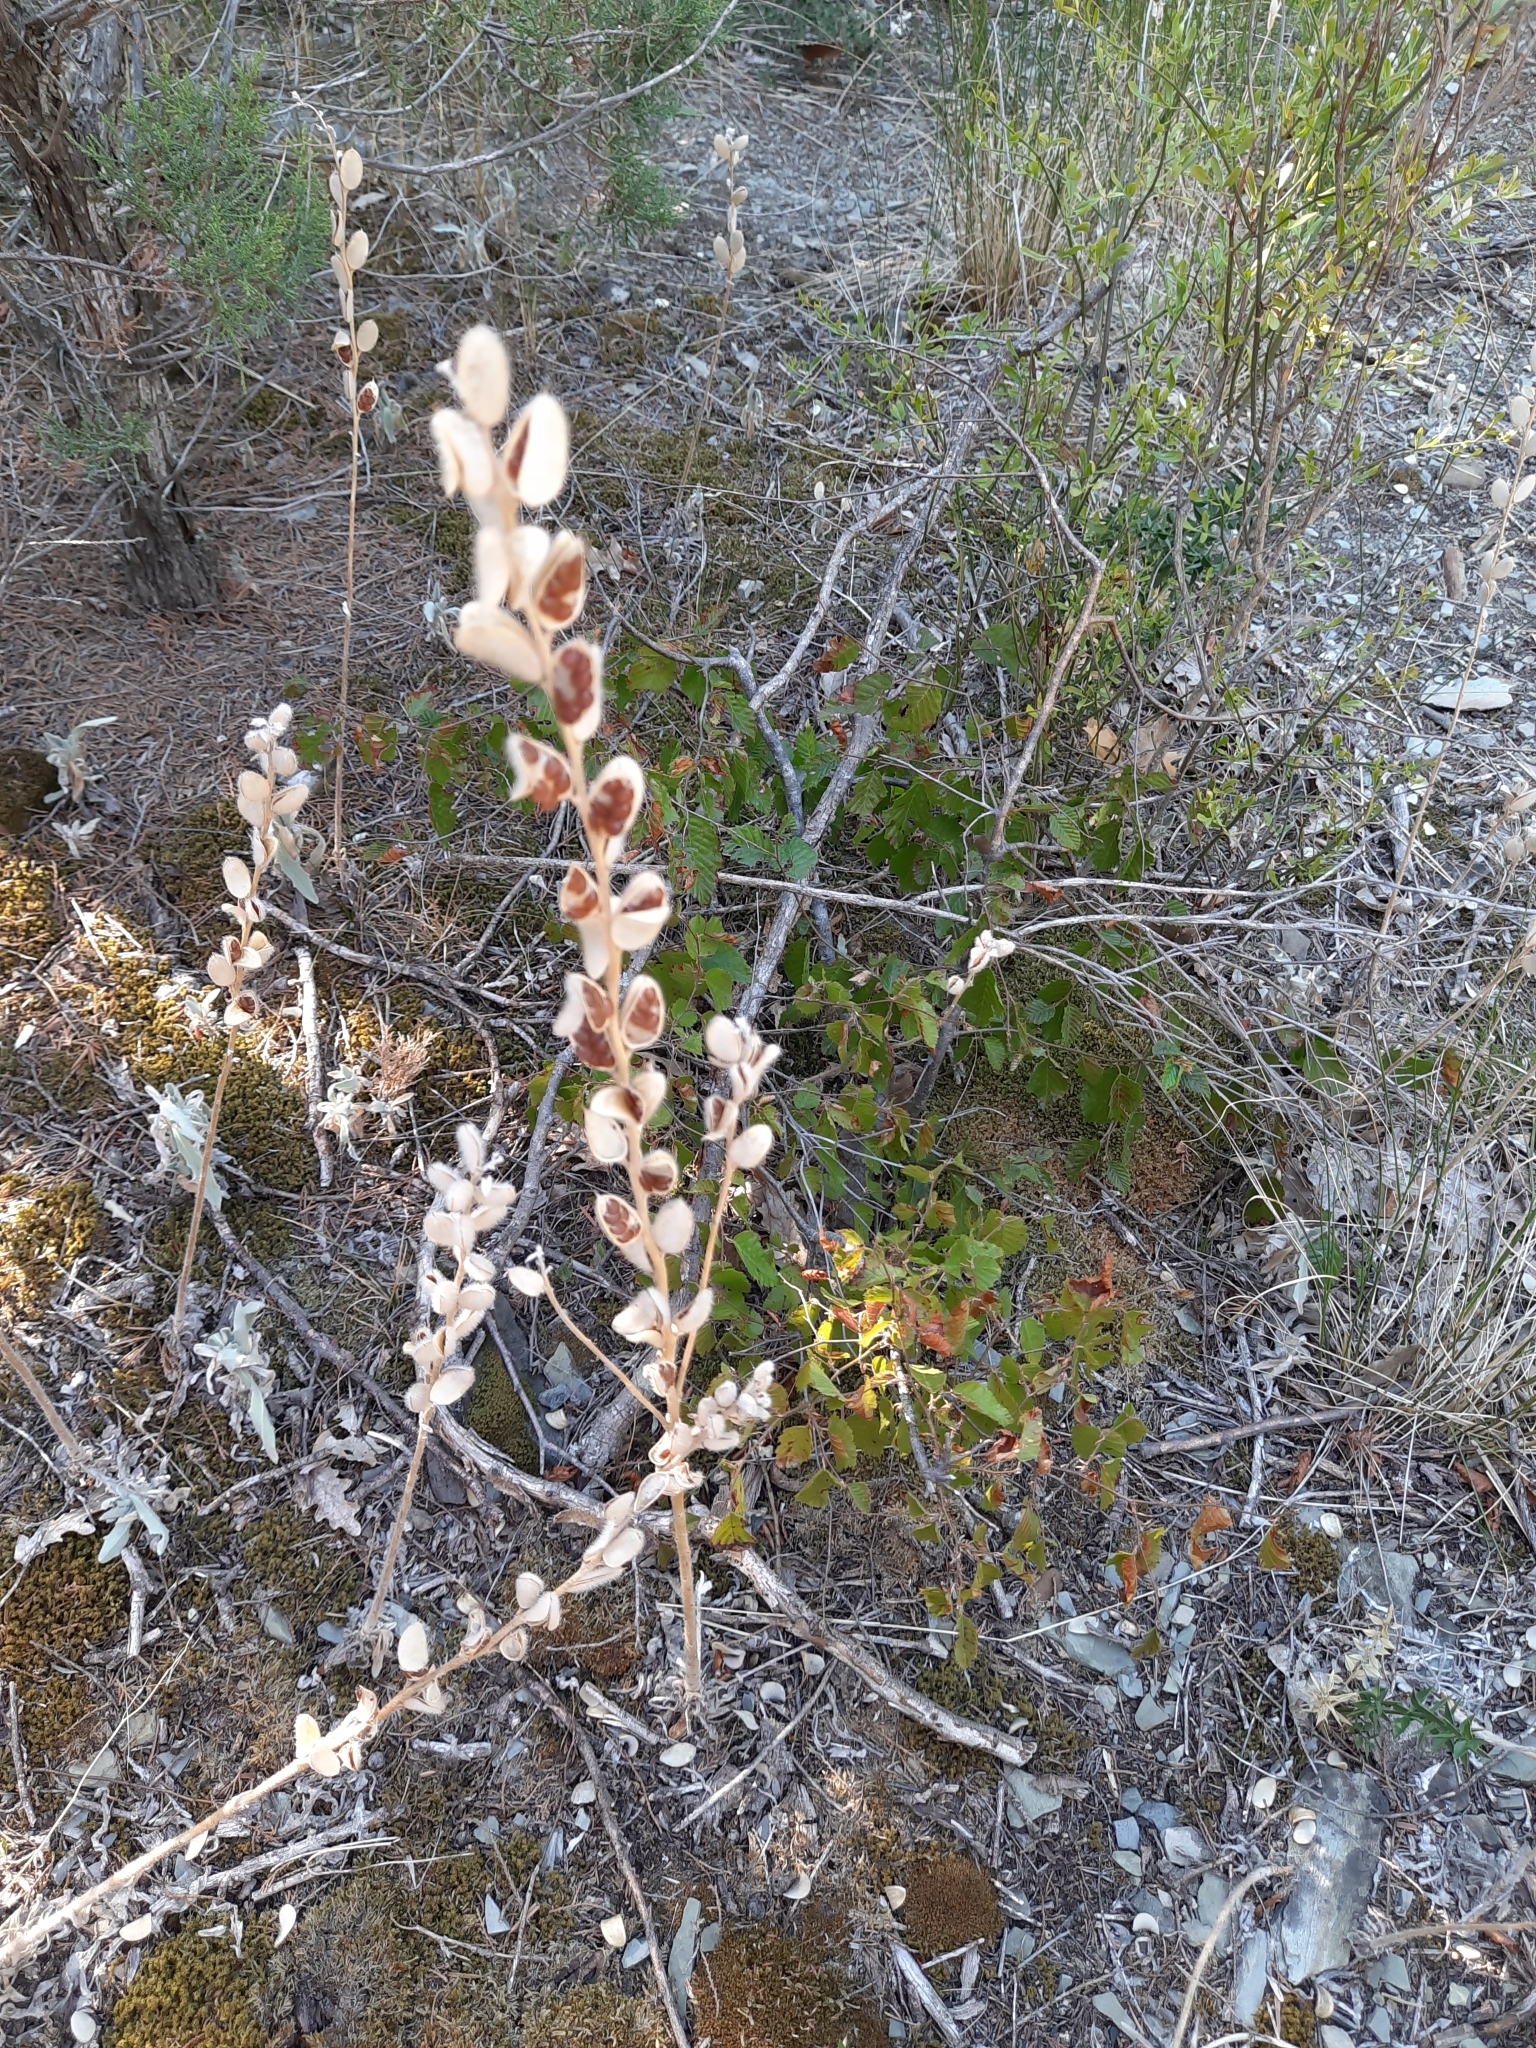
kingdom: Plantae
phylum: Tracheophyta
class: Magnoliopsida
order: Brassicales
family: Brassicaceae
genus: Fibigia
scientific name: Fibigia clypeata
